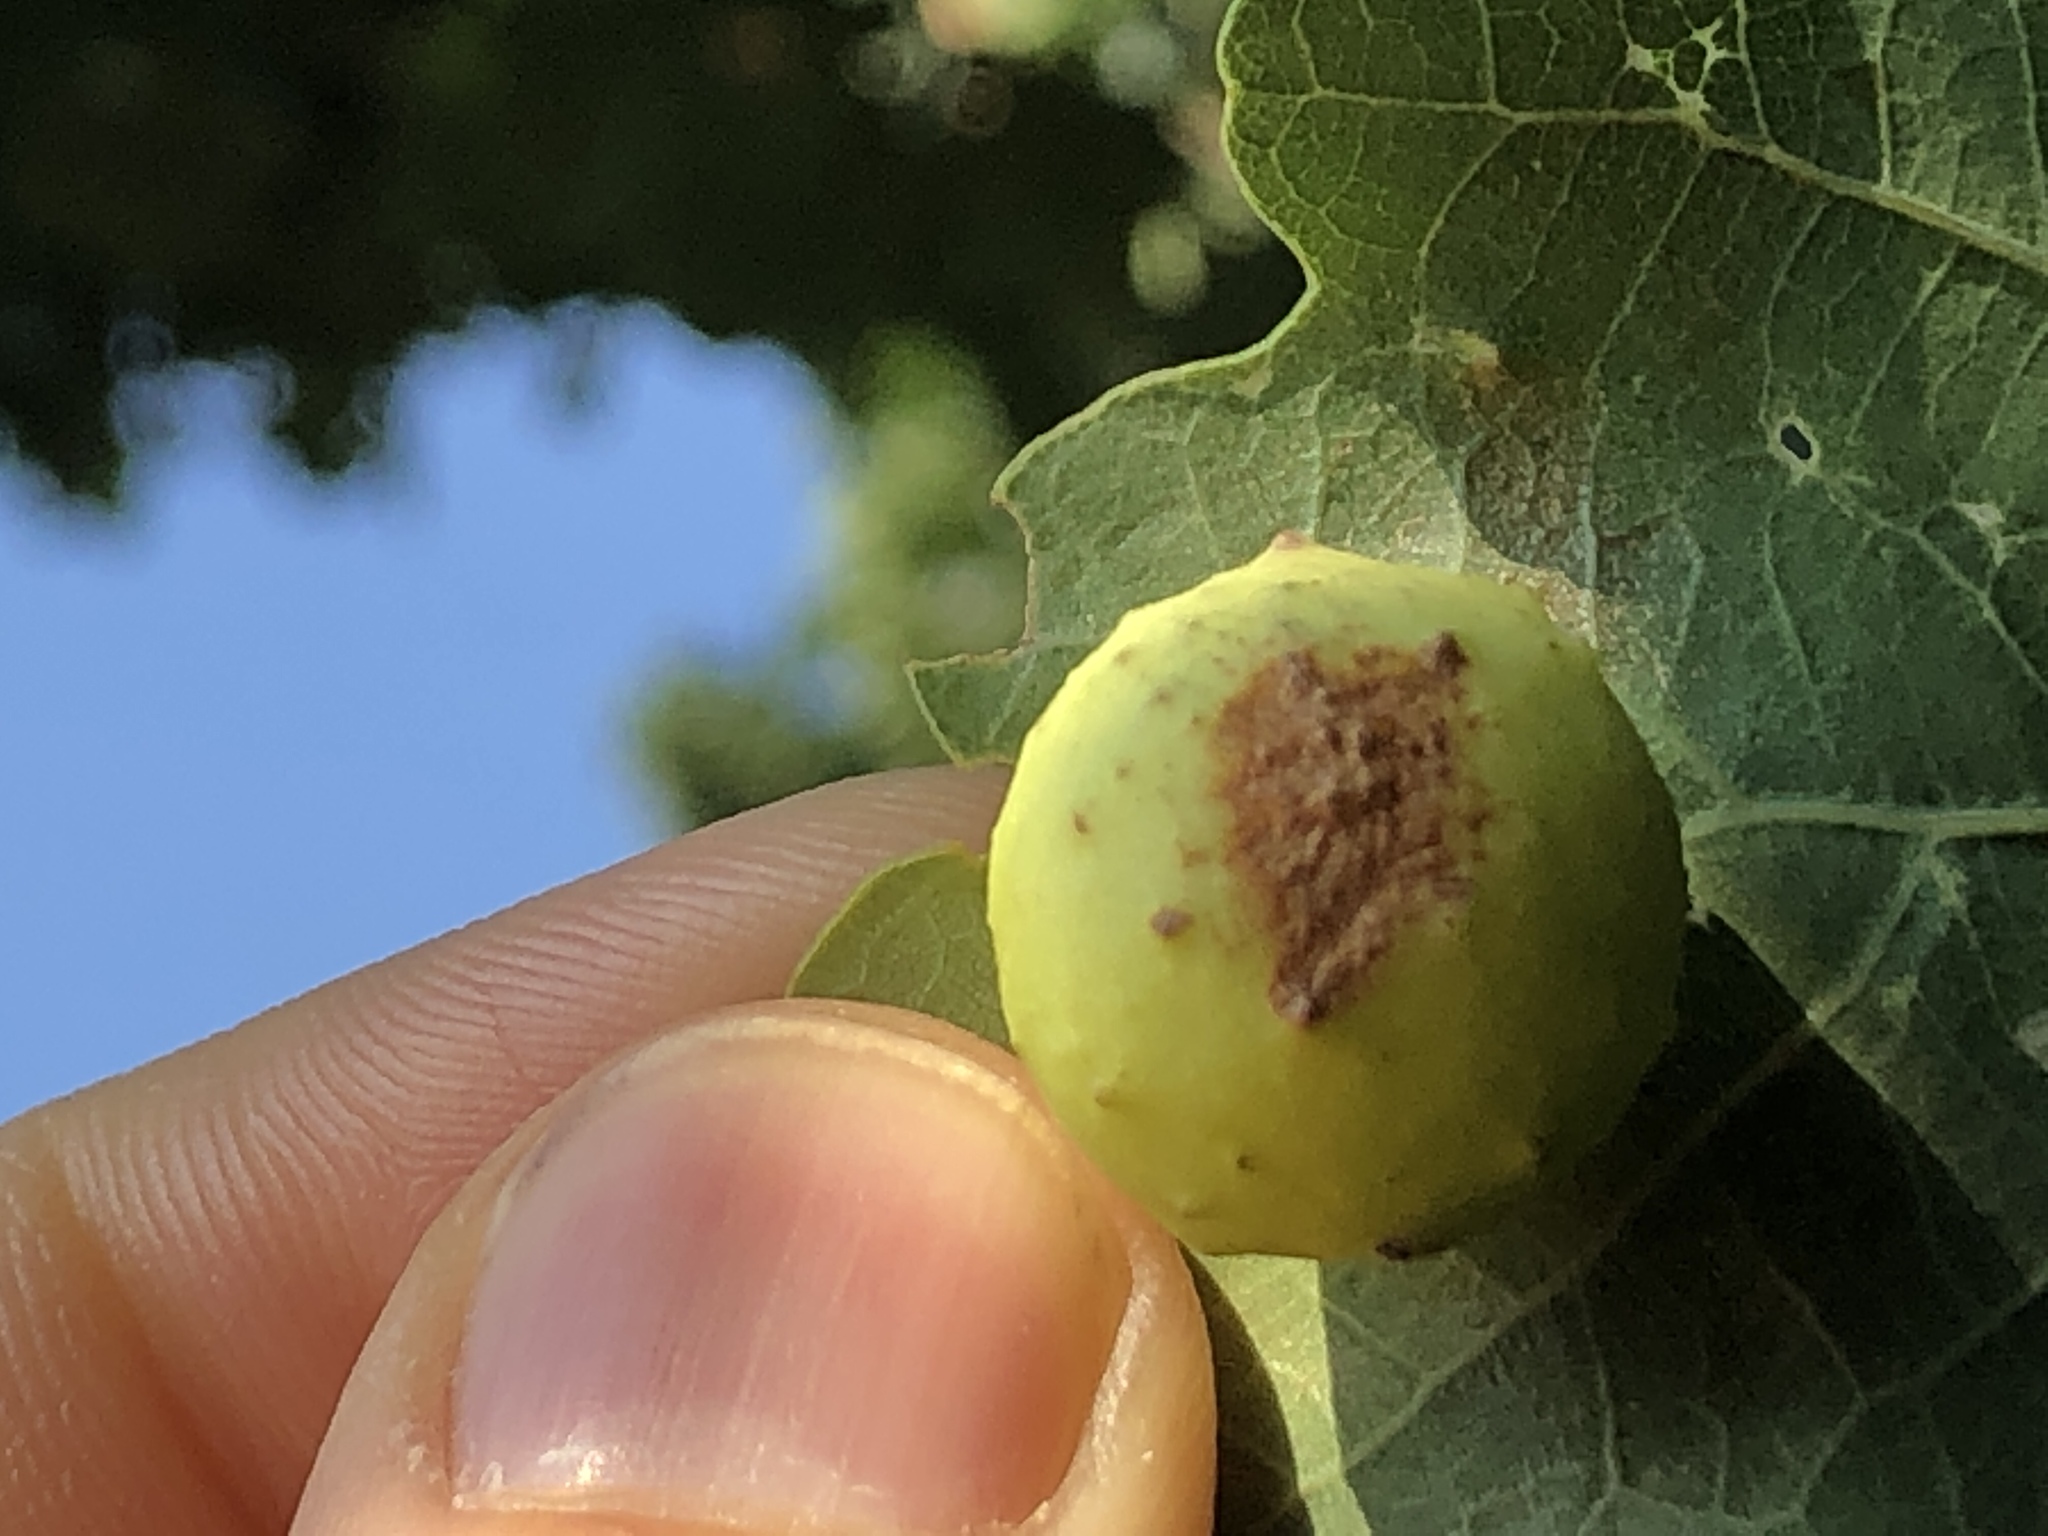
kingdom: Animalia
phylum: Arthropoda
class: Insecta
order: Hymenoptera
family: Cynipidae
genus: Cynips
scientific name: Cynips quercusfolii
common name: Cherry gall
